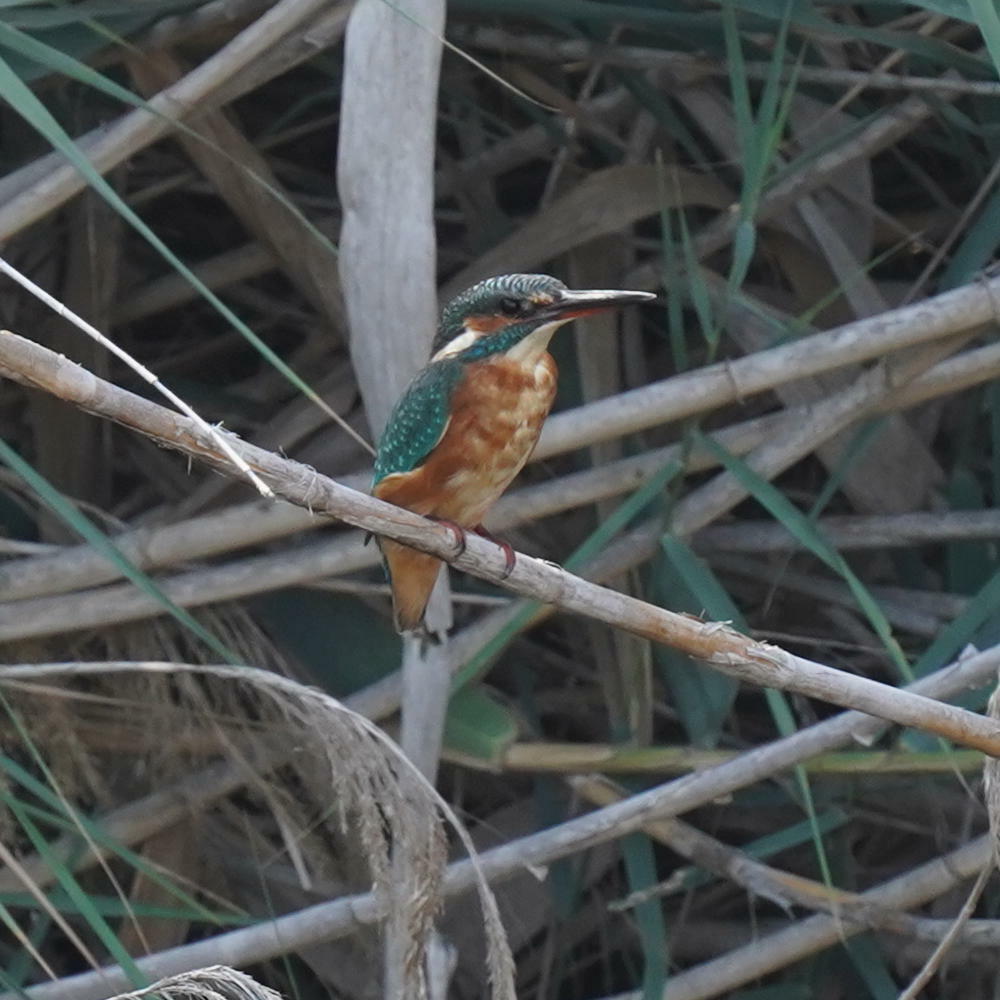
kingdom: Animalia
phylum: Chordata
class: Aves
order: Coraciiformes
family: Alcedinidae
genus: Alcedo
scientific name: Alcedo atthis
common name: Common kingfisher
